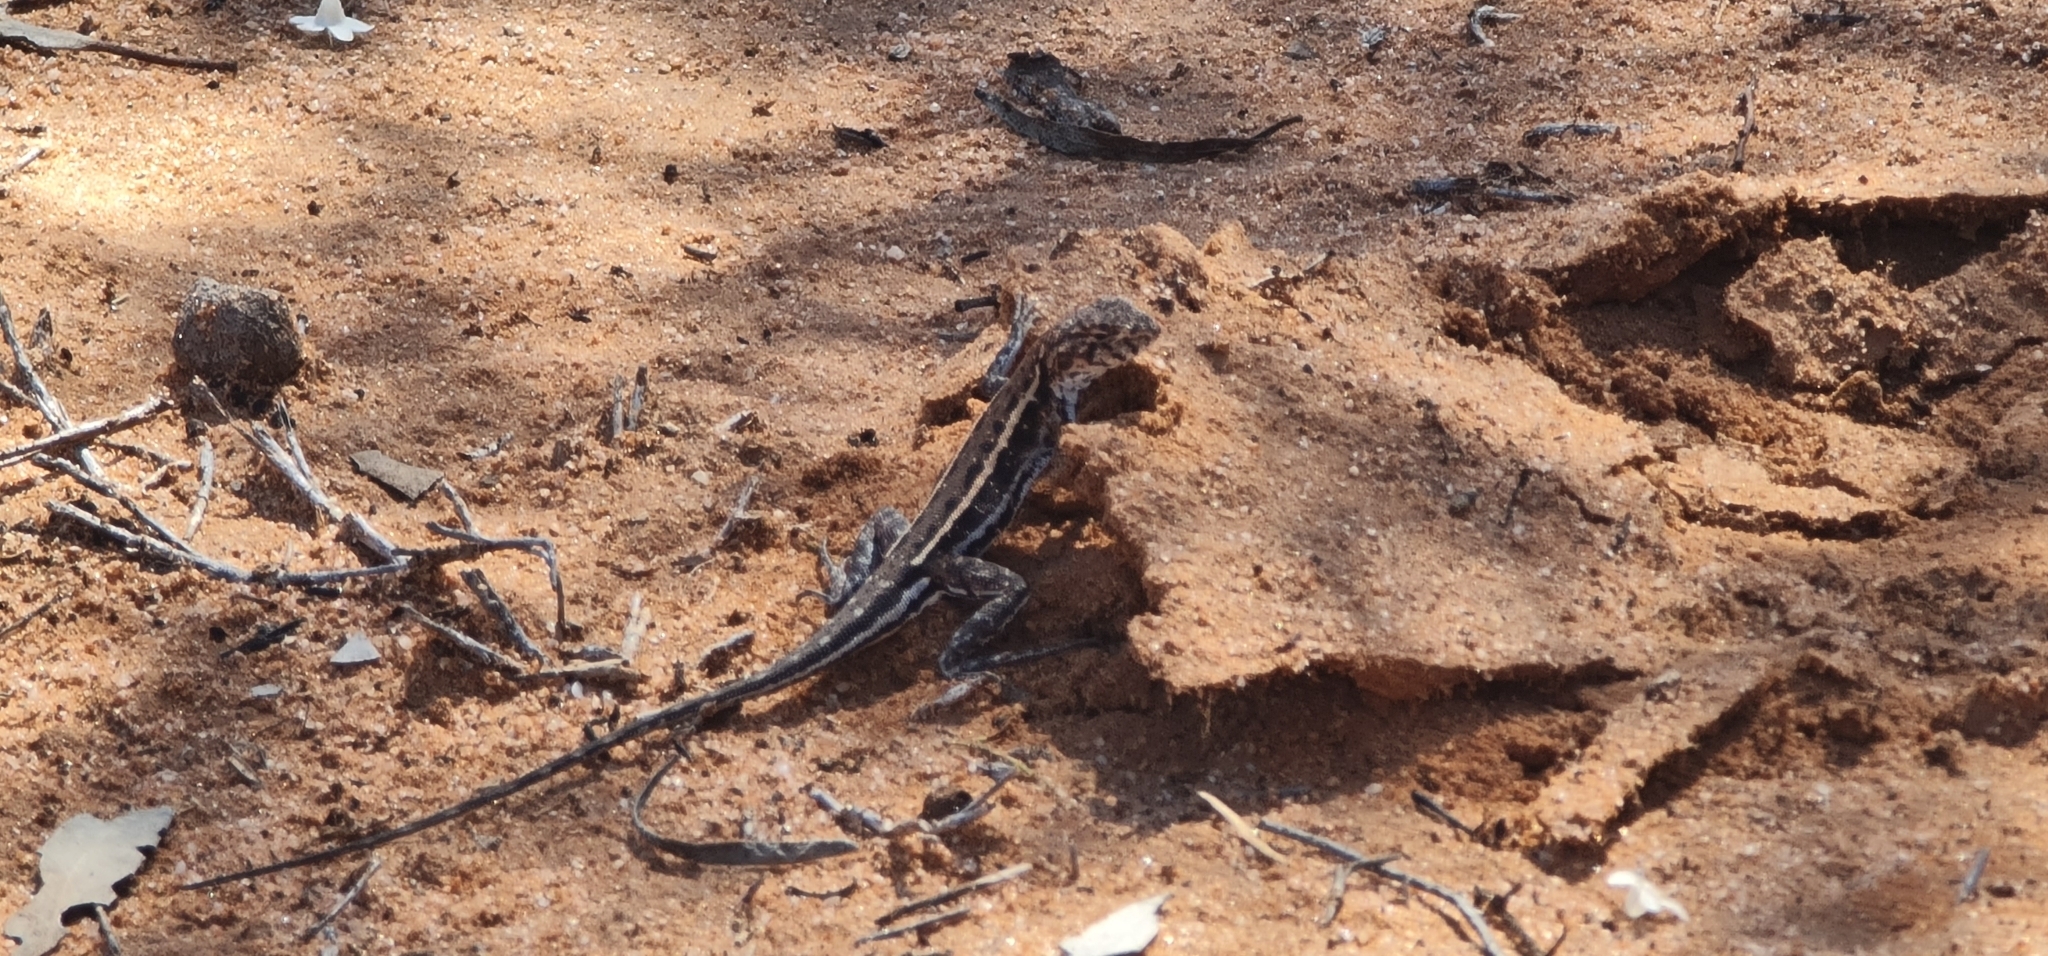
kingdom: Animalia
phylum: Chordata
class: Squamata
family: Agamidae
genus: Ctenophorus
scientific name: Ctenophorus spinodomus
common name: Eastern mallee dragon
